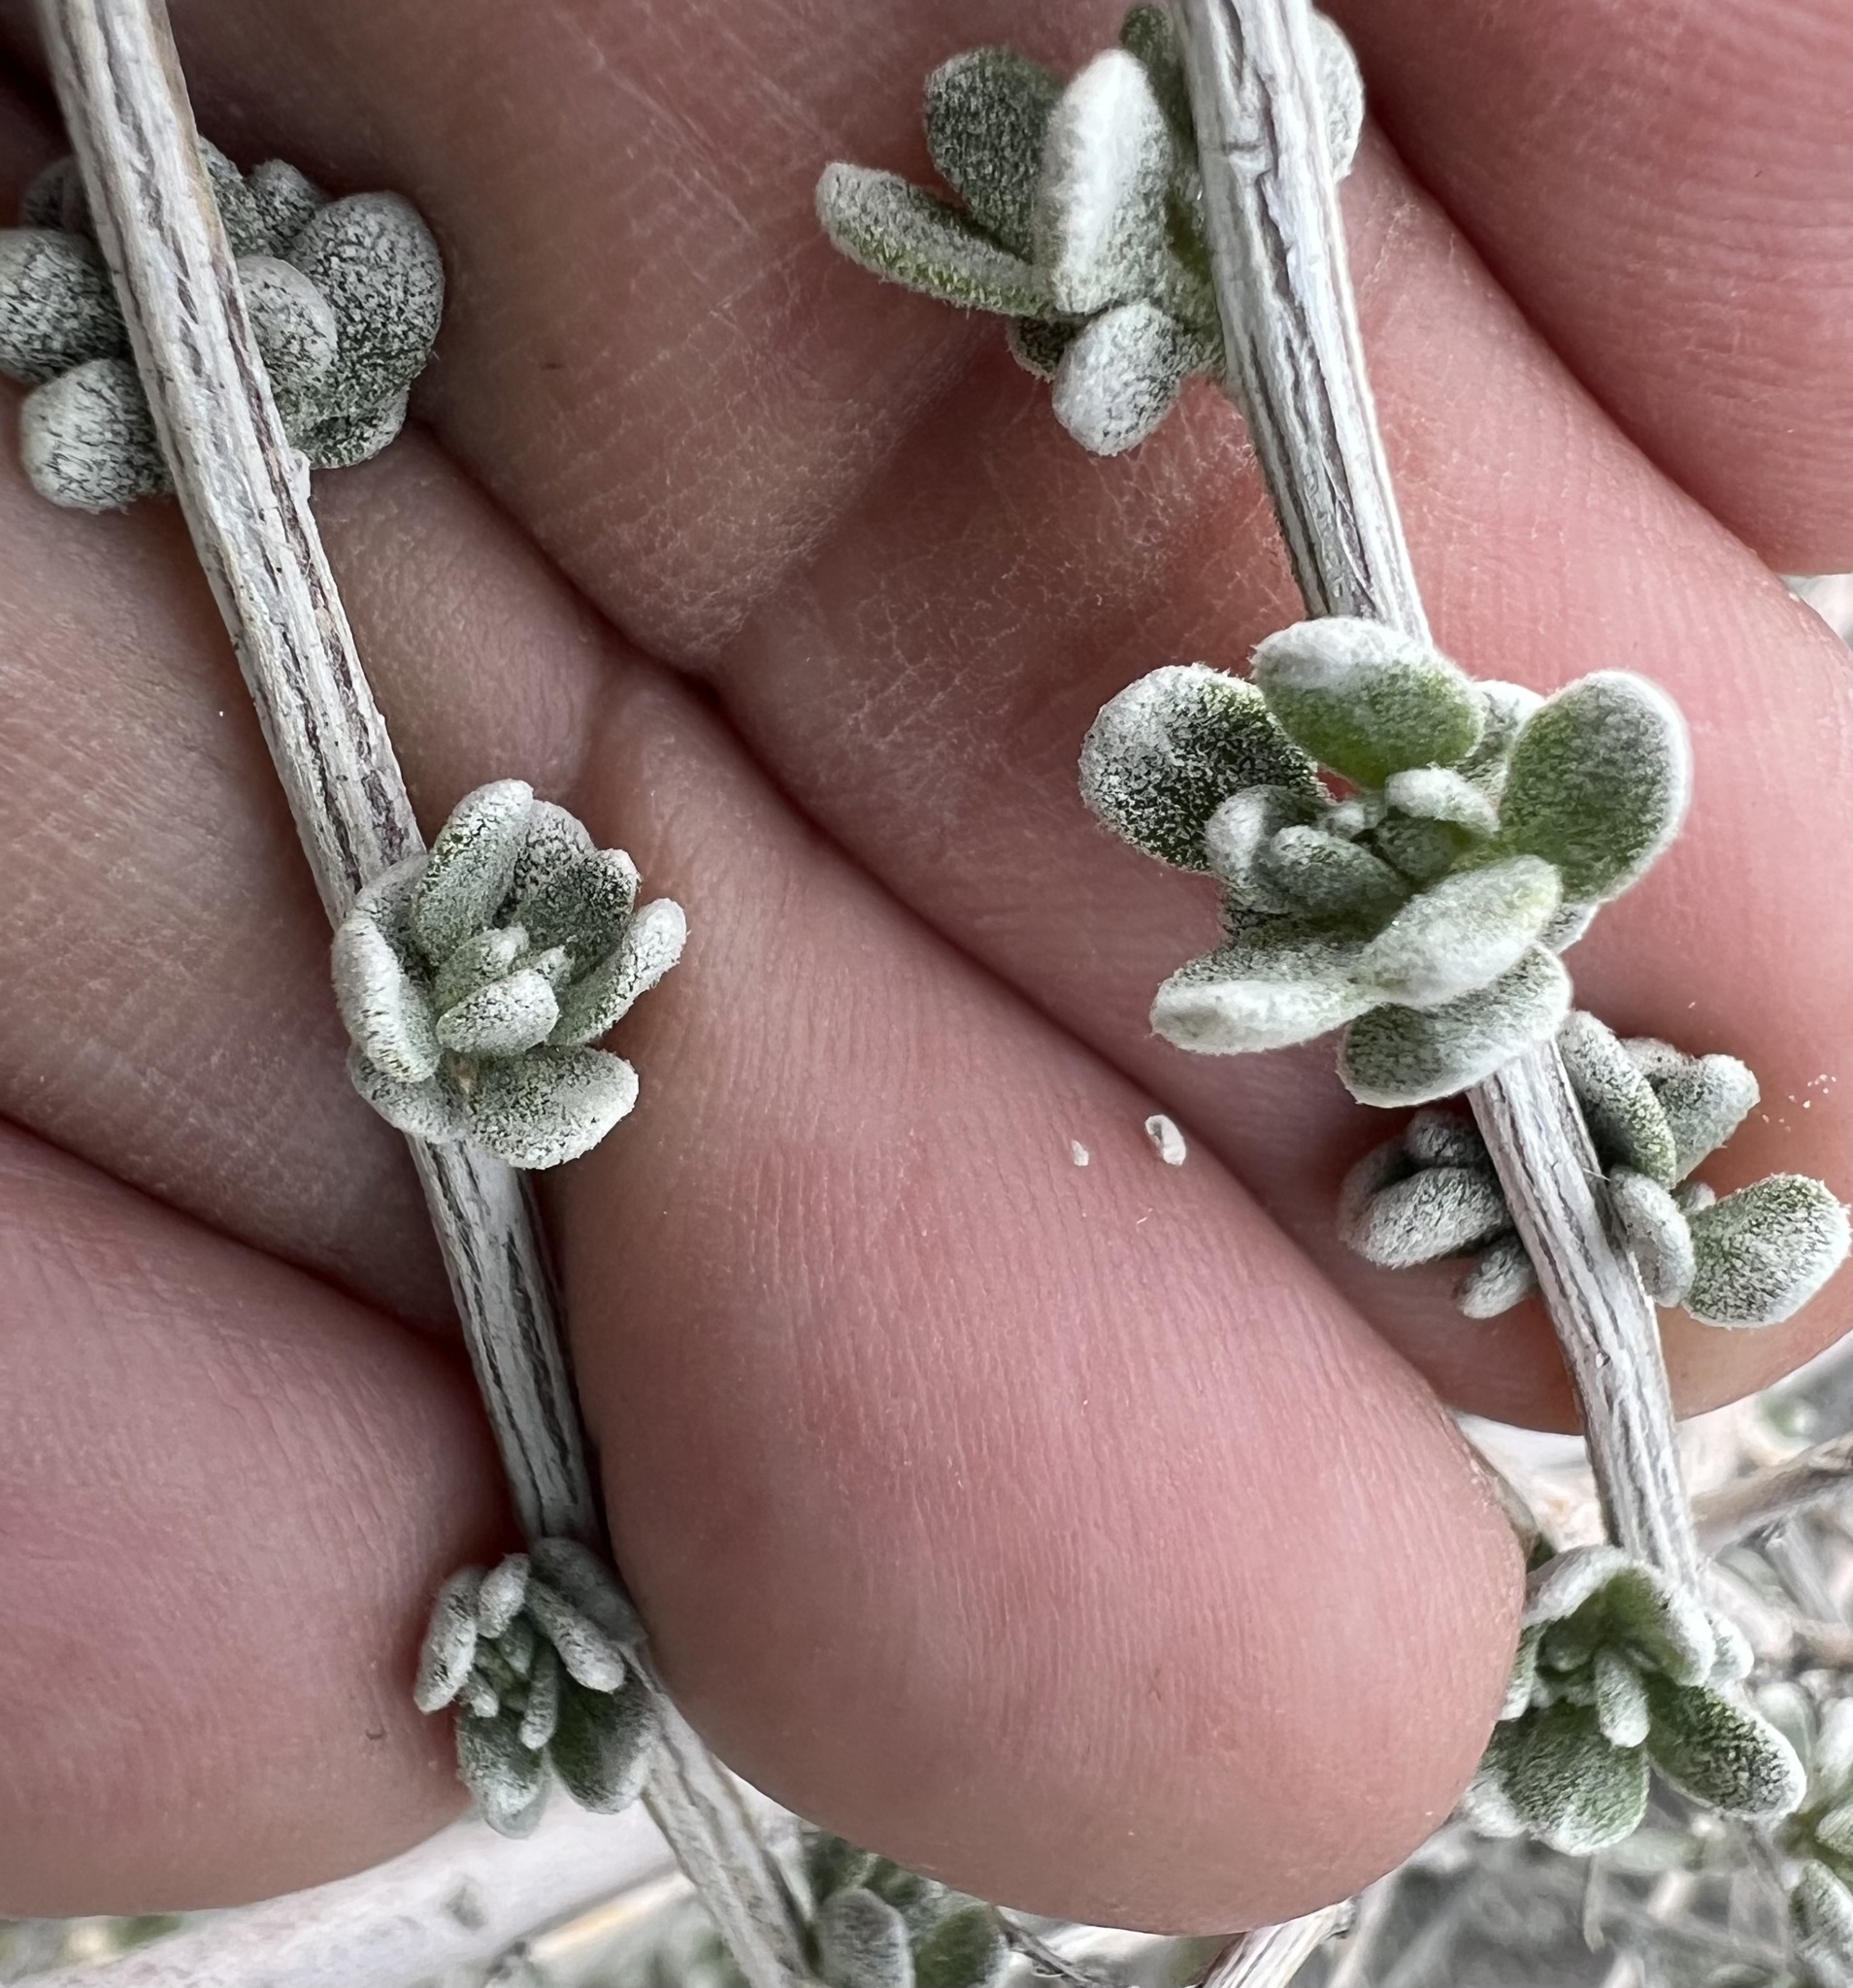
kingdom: Plantae
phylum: Tracheophyta
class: Magnoliopsida
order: Caryophyllales
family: Amaranthaceae
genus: Grayia
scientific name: Grayia spinosa
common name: Spiny hopsage
